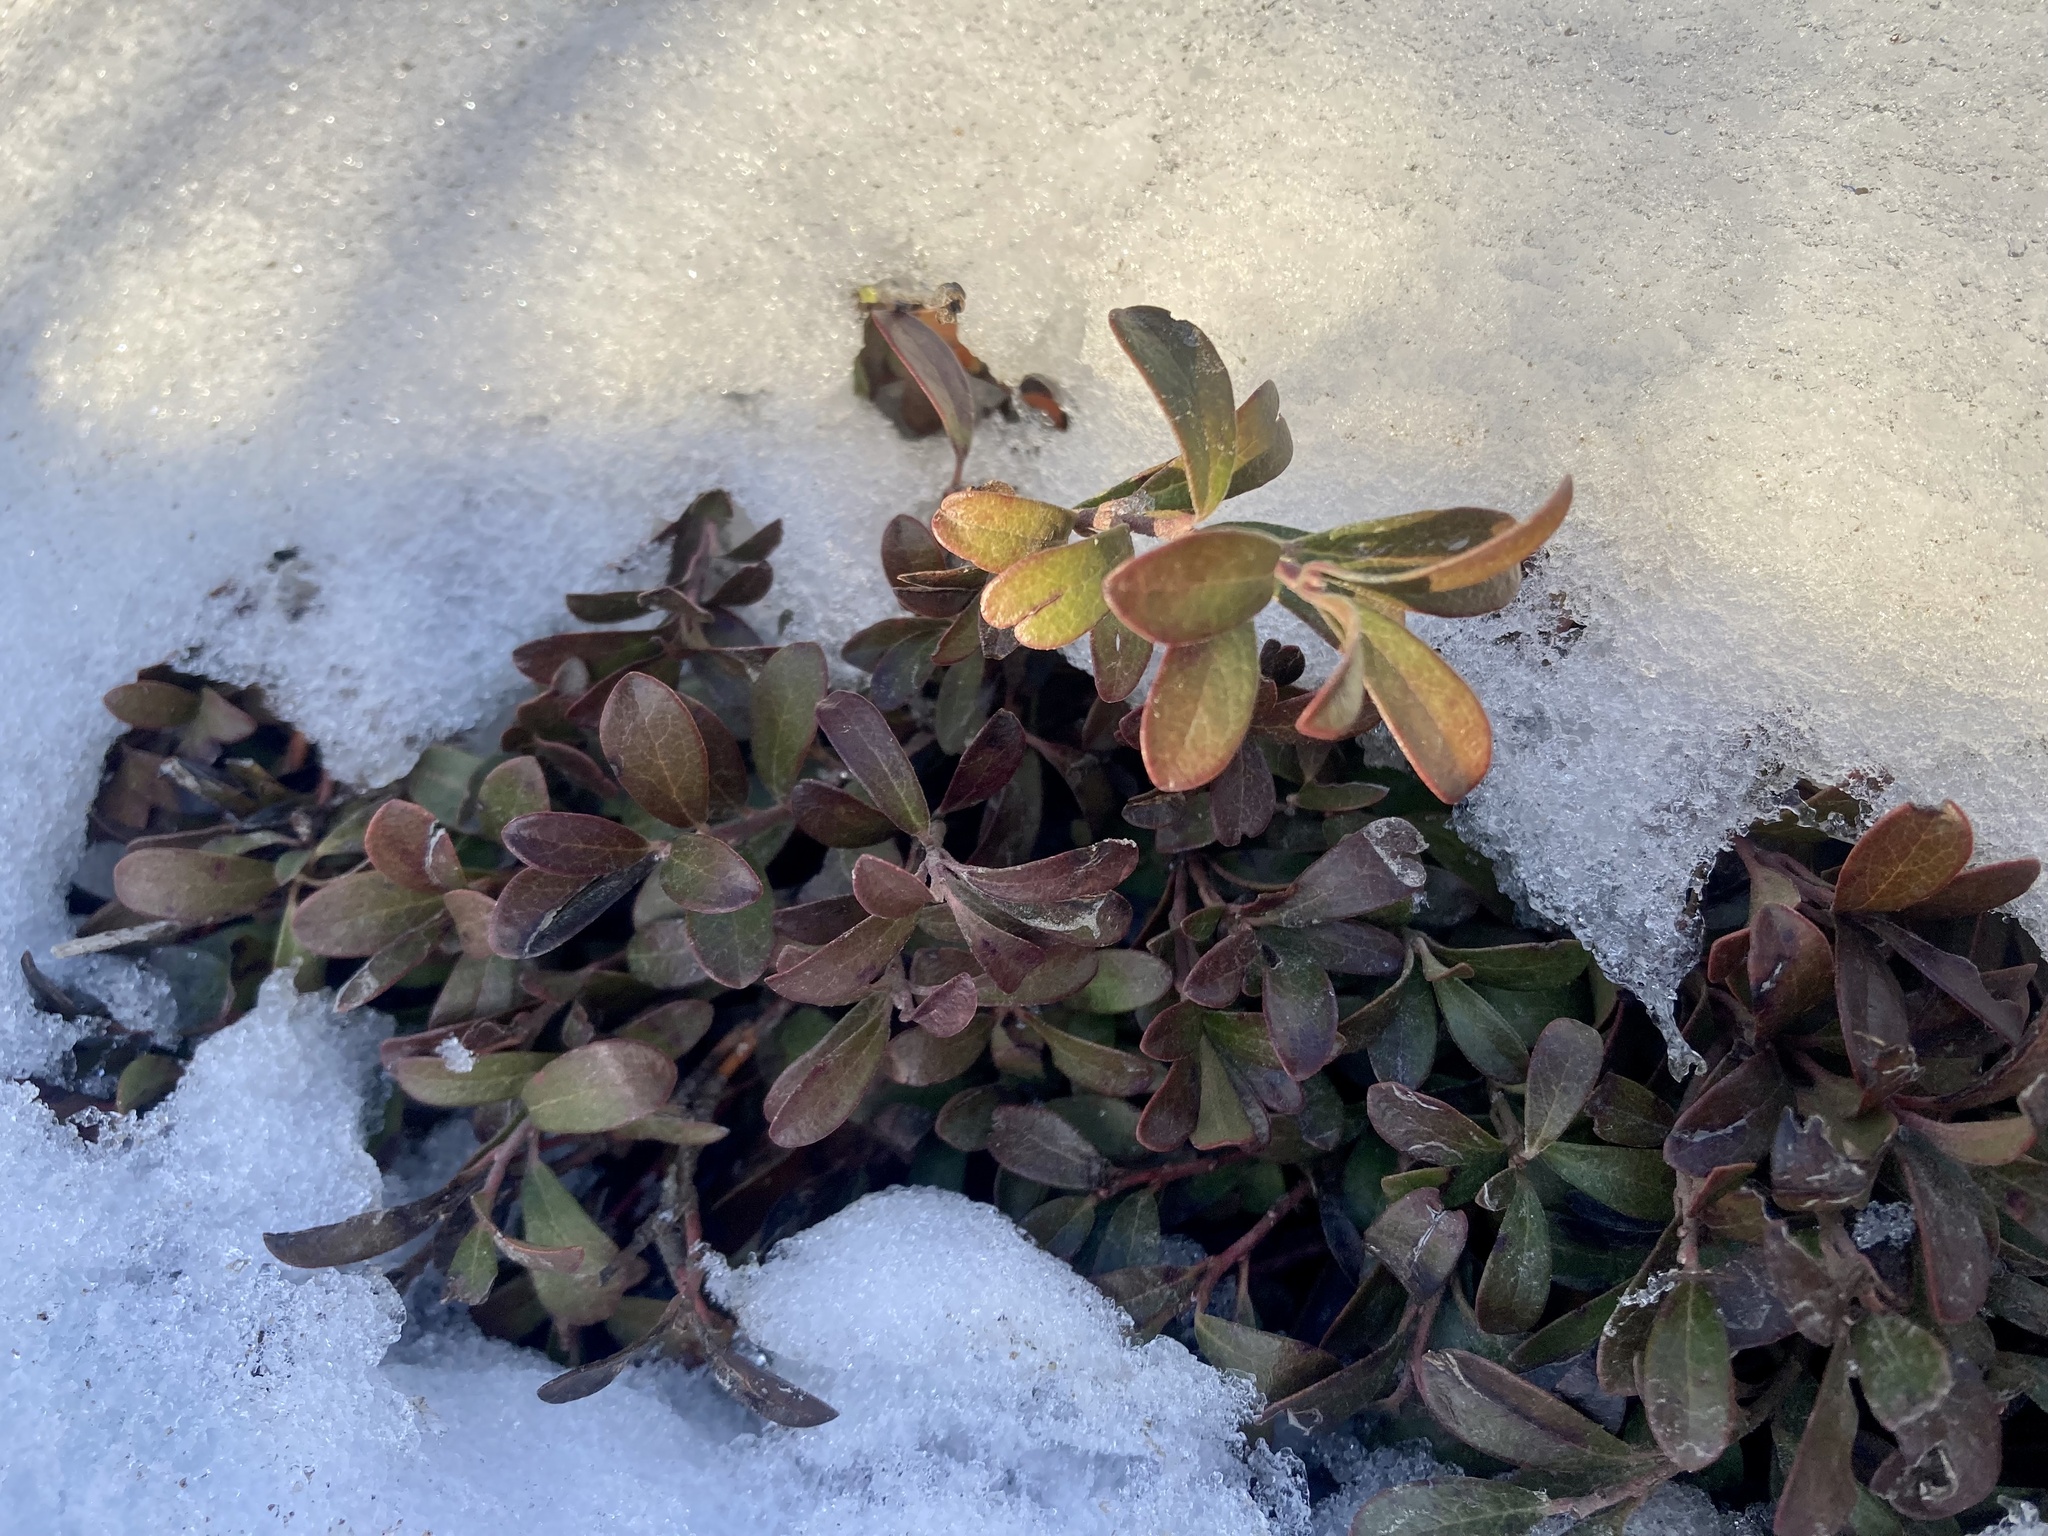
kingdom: Plantae
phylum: Tracheophyta
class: Magnoliopsida
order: Ericales
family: Ericaceae
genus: Arctostaphylos
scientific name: Arctostaphylos uva-ursi
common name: Bearberry
